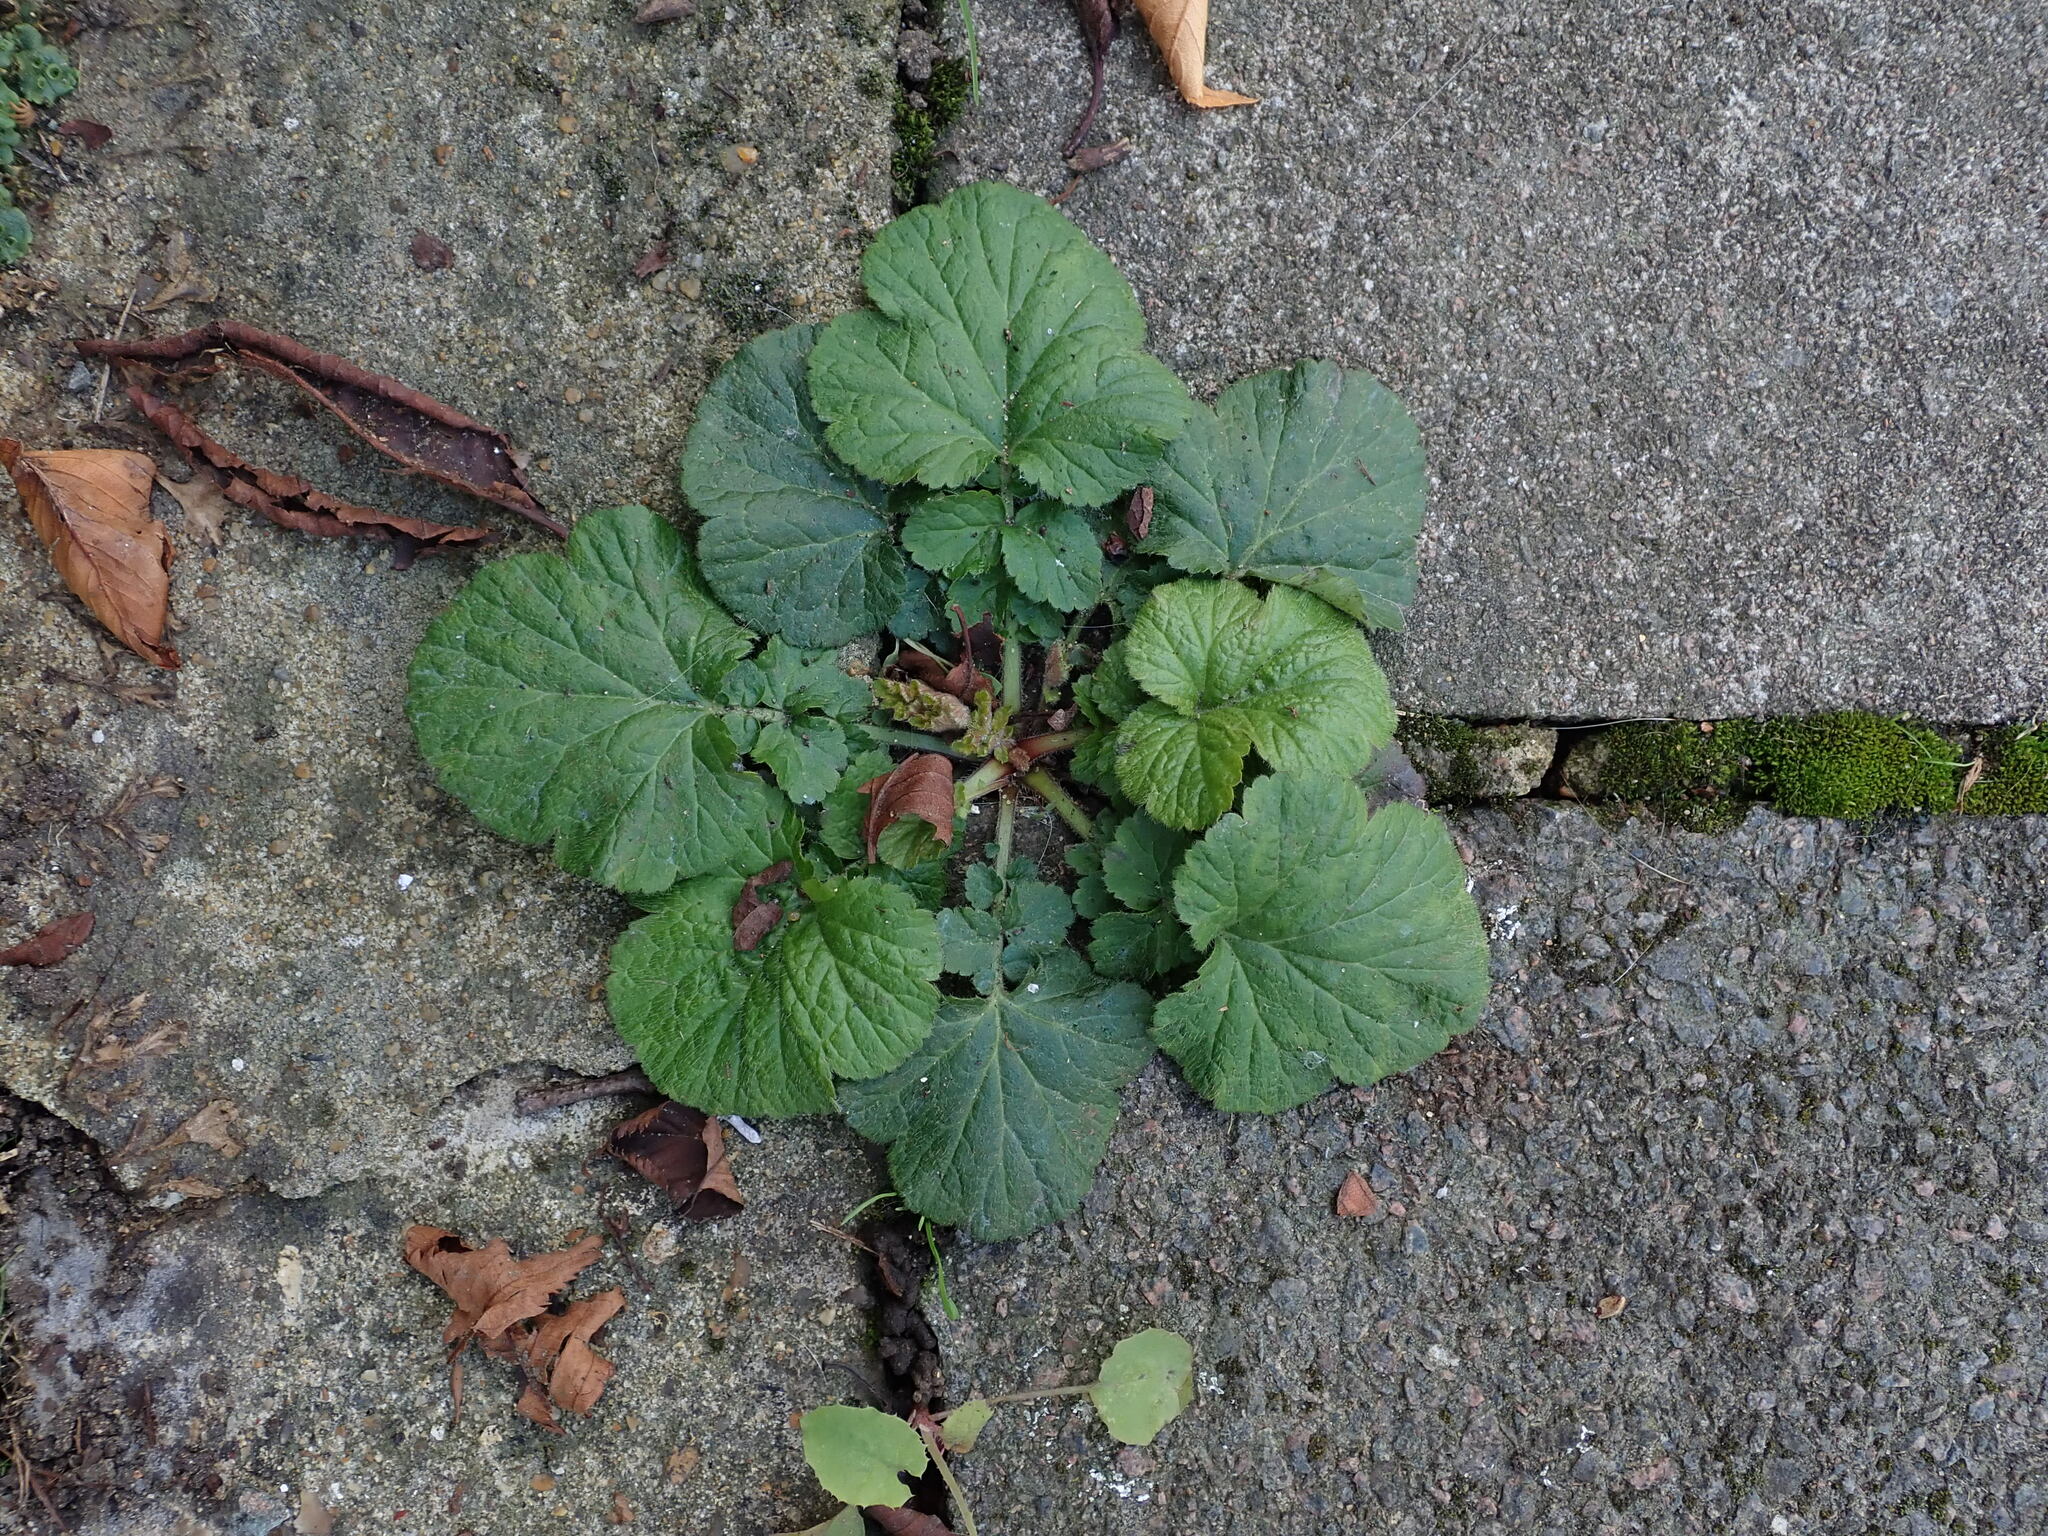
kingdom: Plantae
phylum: Tracheophyta
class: Magnoliopsida
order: Rosales
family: Rosaceae
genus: Geum
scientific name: Geum urbanum
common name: Wood avens
